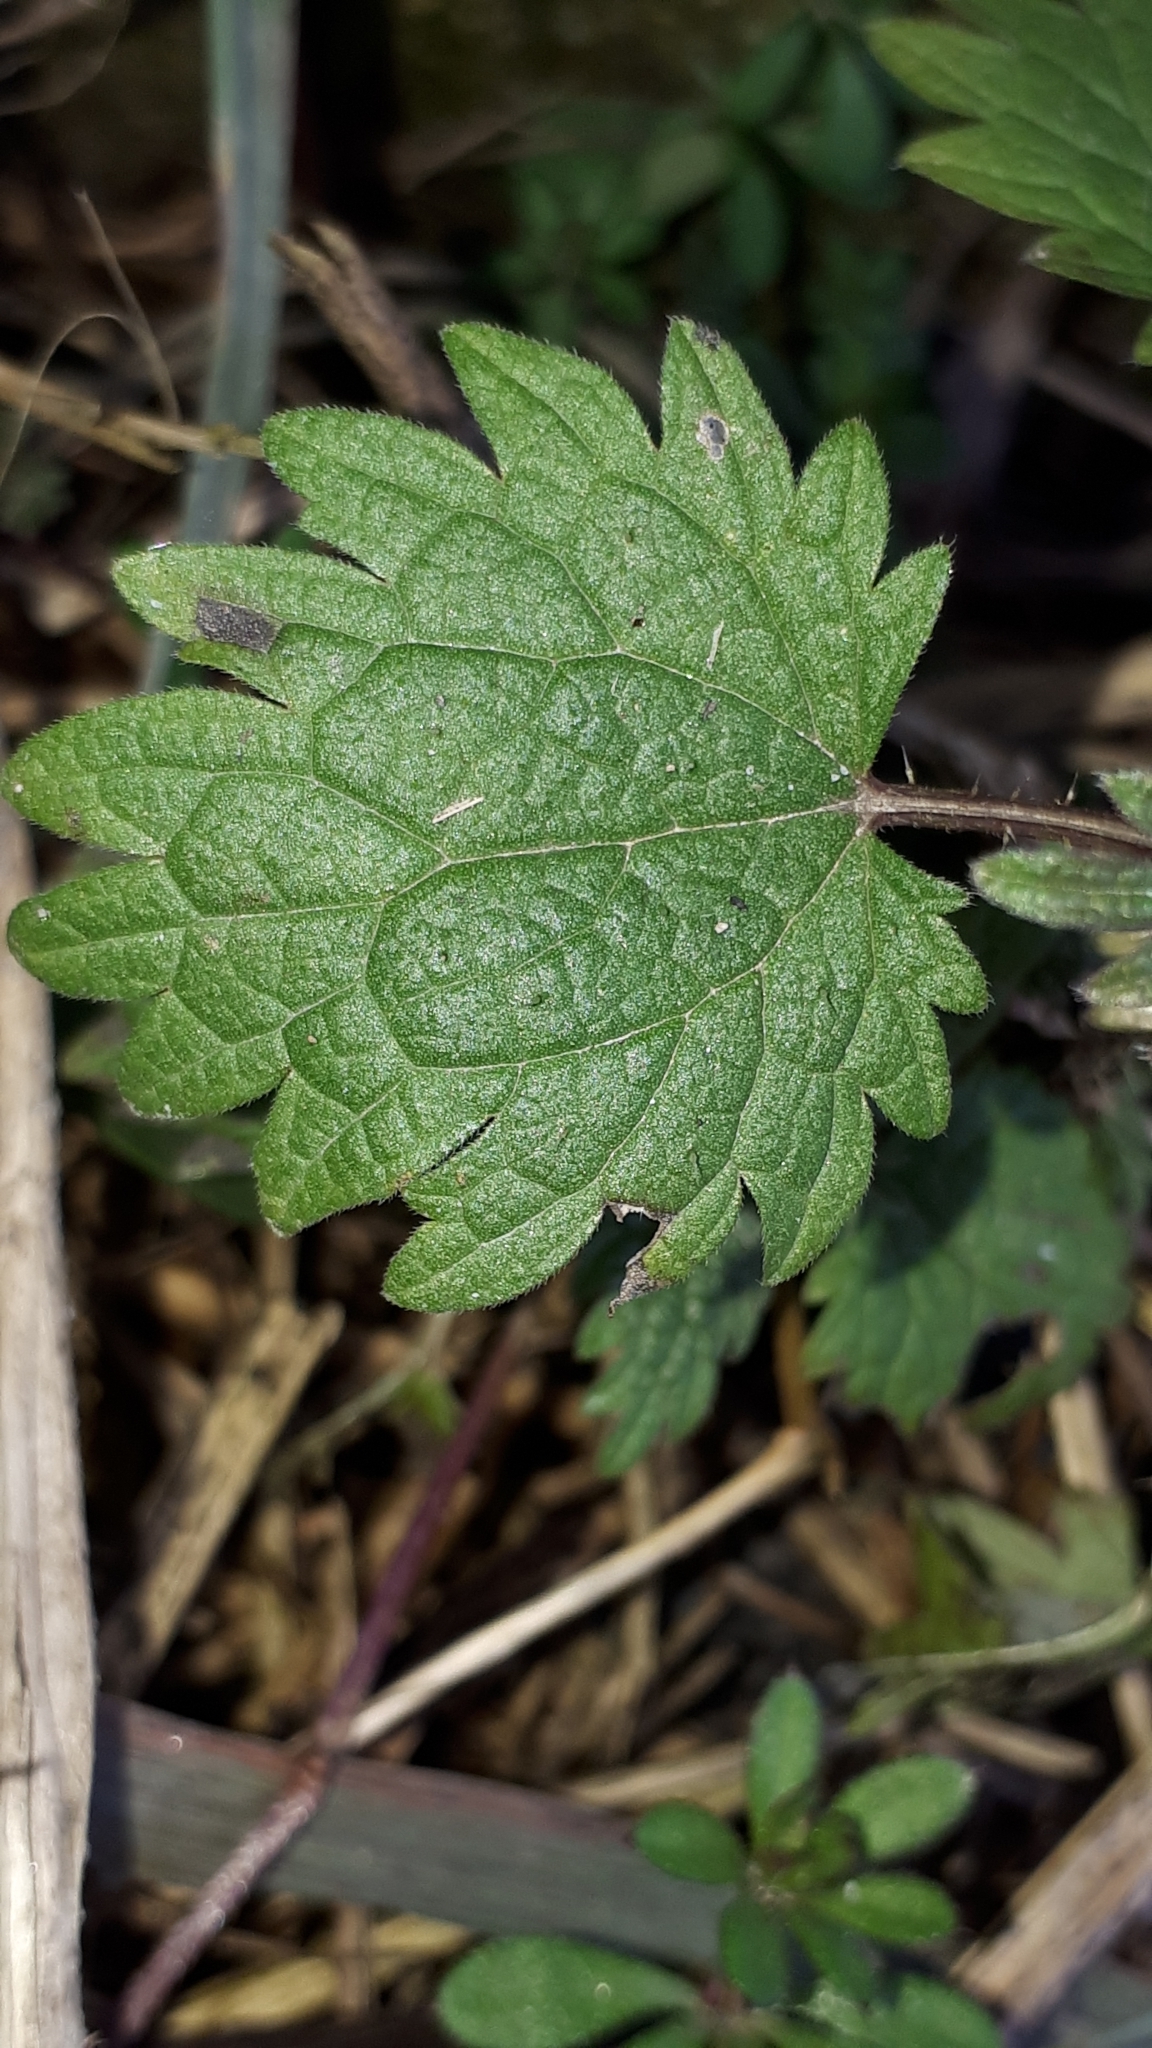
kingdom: Plantae
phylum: Tracheophyta
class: Magnoliopsida
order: Rosales
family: Urticaceae
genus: Urtica
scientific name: Urtica urens
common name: Dwarf nettle
